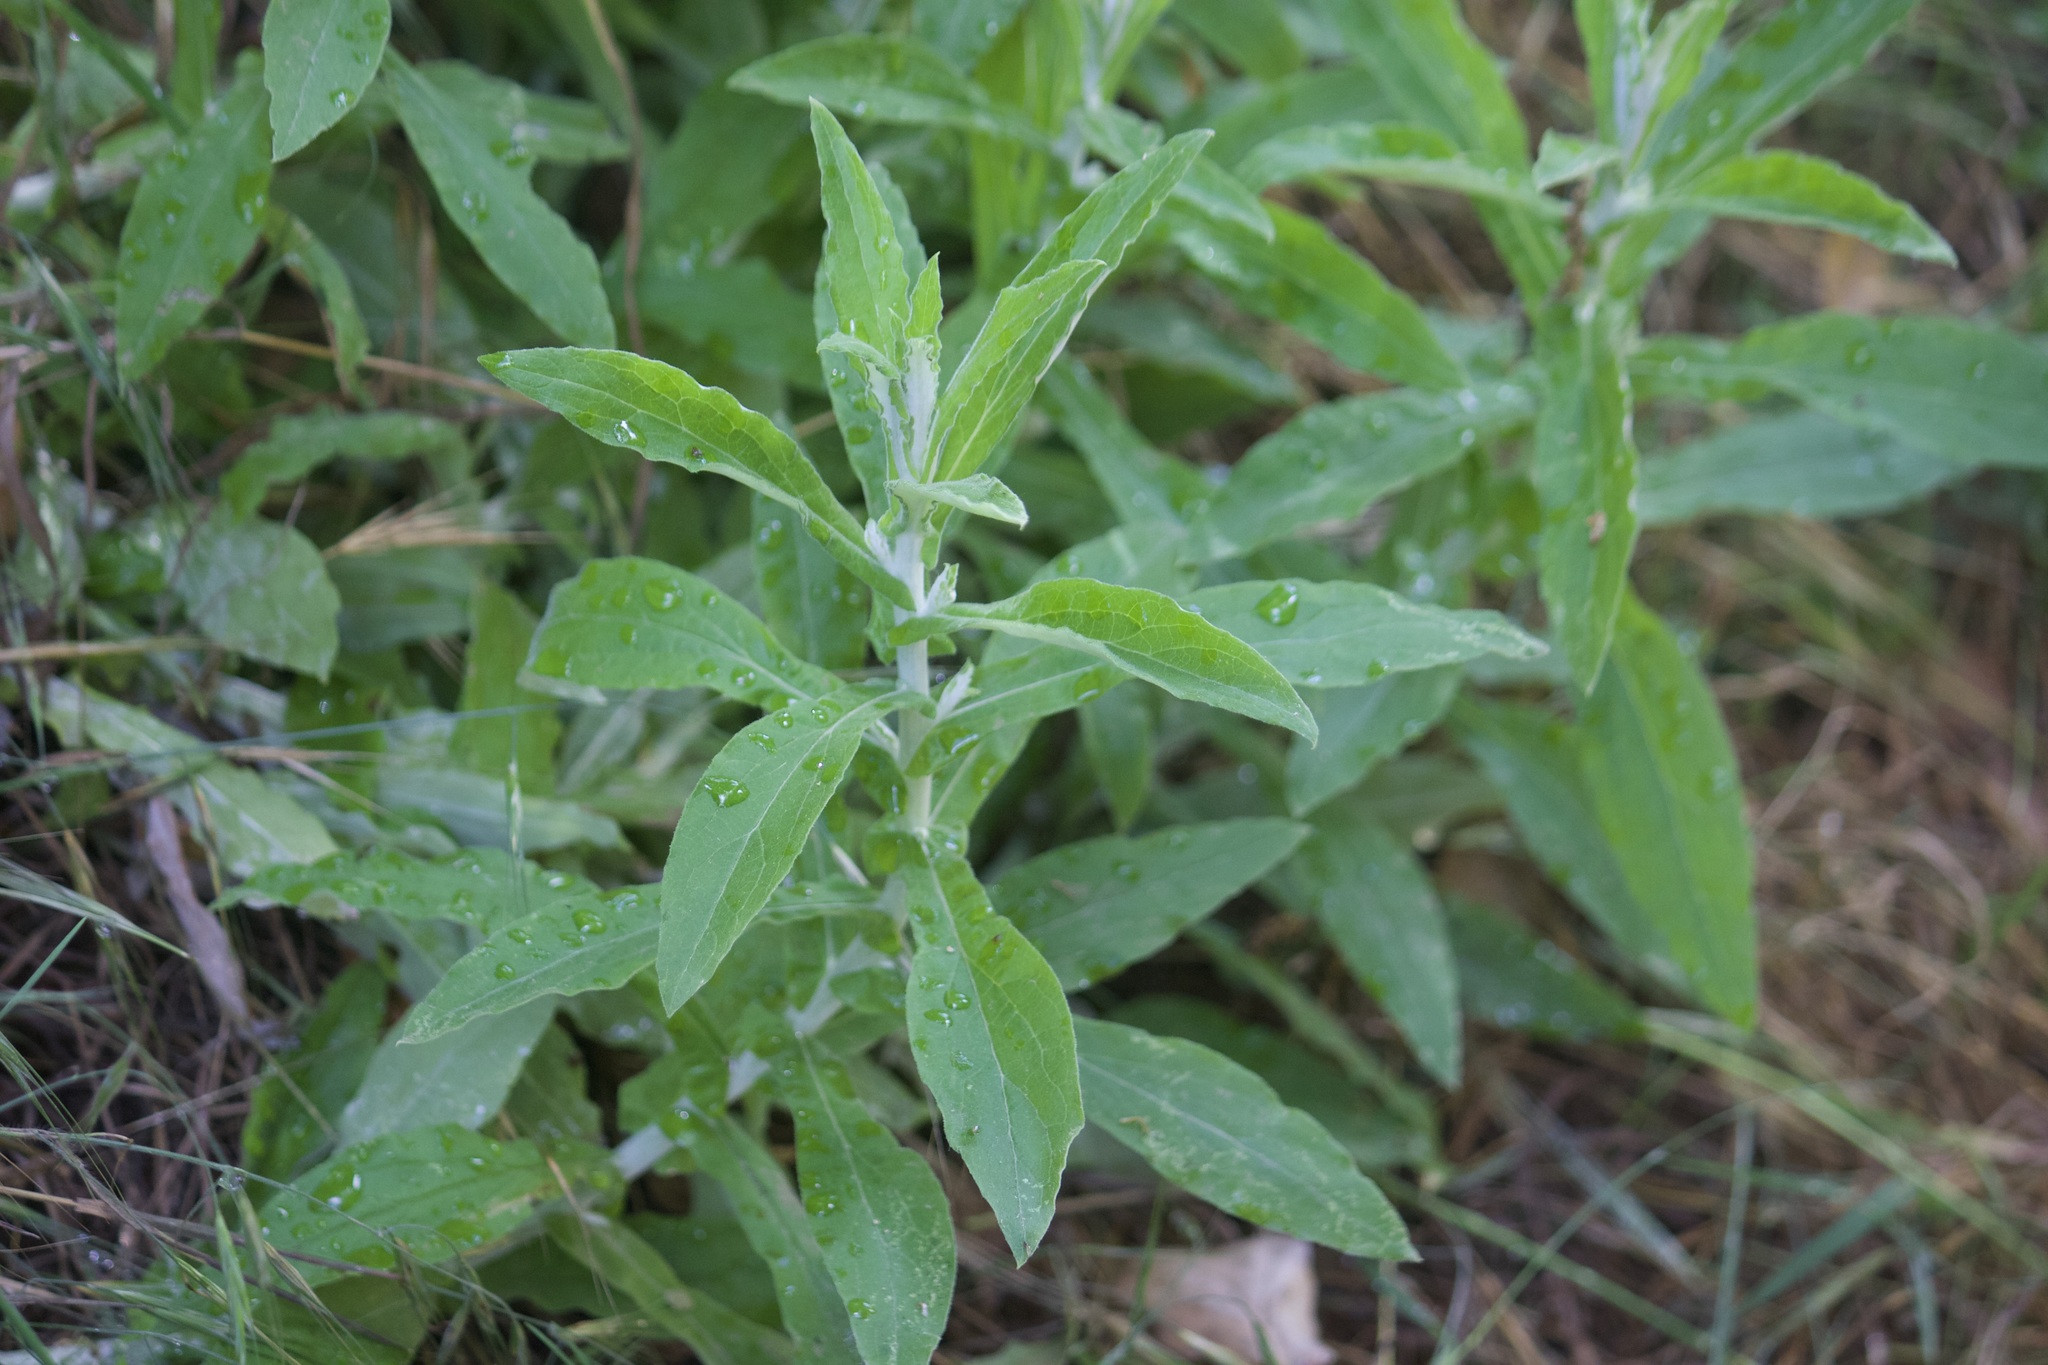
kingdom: Plantae
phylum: Tracheophyta
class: Magnoliopsida
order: Asterales
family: Asteraceae
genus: Pseudognaphalium
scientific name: Pseudognaphalium biolettii
